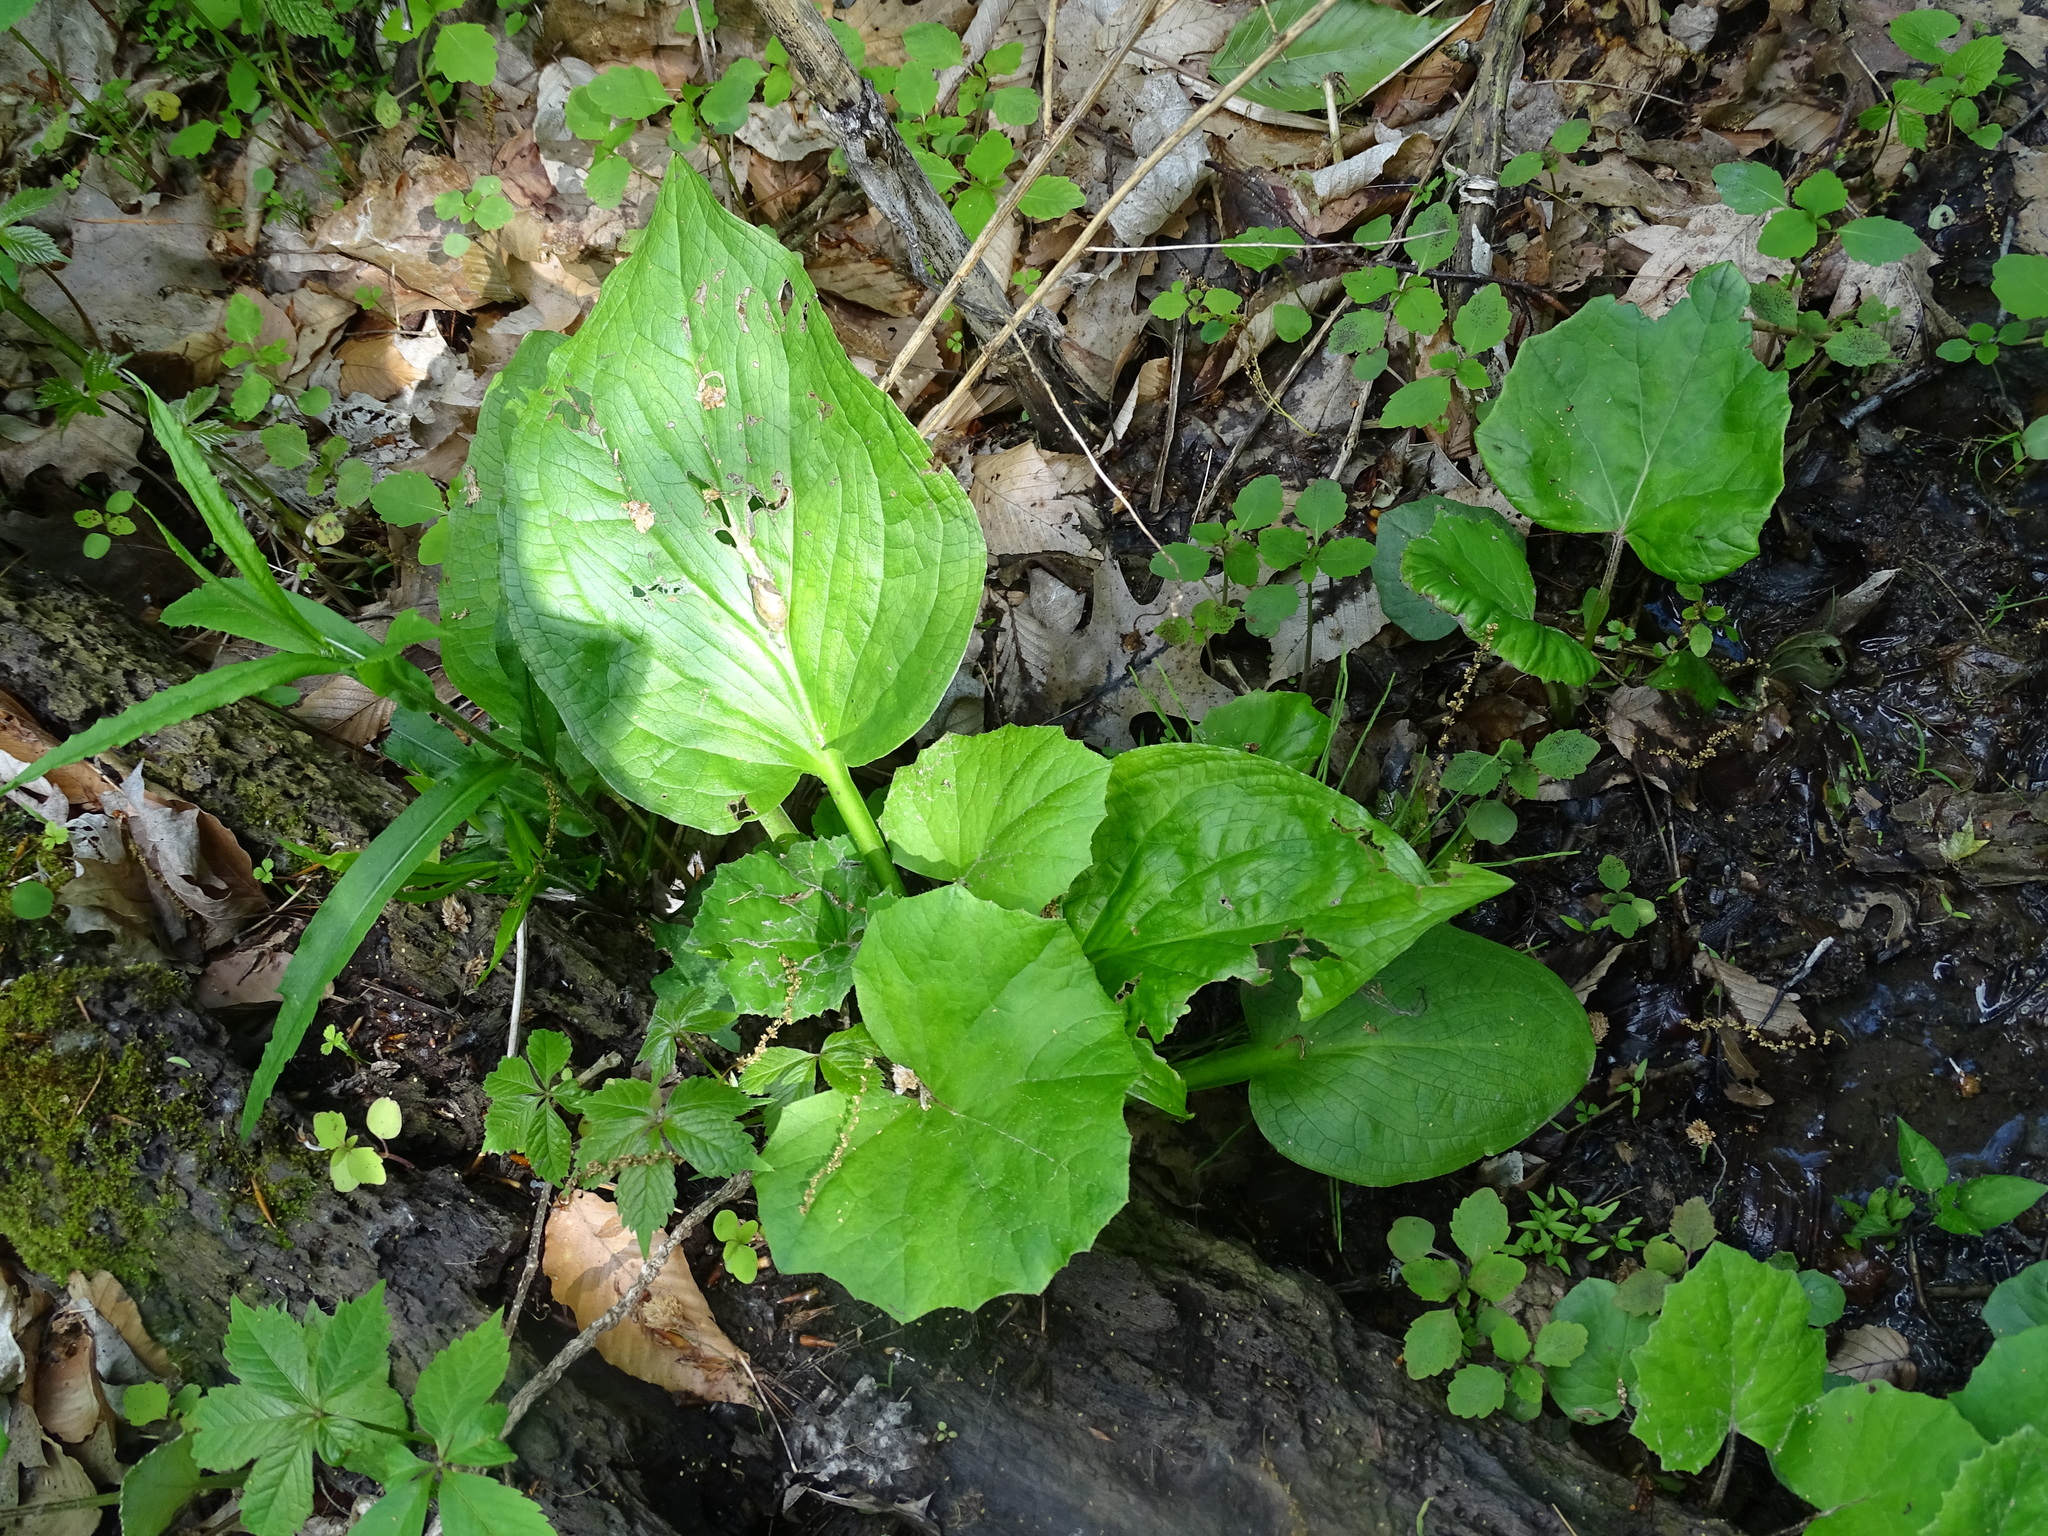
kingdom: Plantae
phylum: Tracheophyta
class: Liliopsida
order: Alismatales
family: Araceae
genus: Symplocarpus
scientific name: Symplocarpus foetidus
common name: Eastern skunk cabbage
